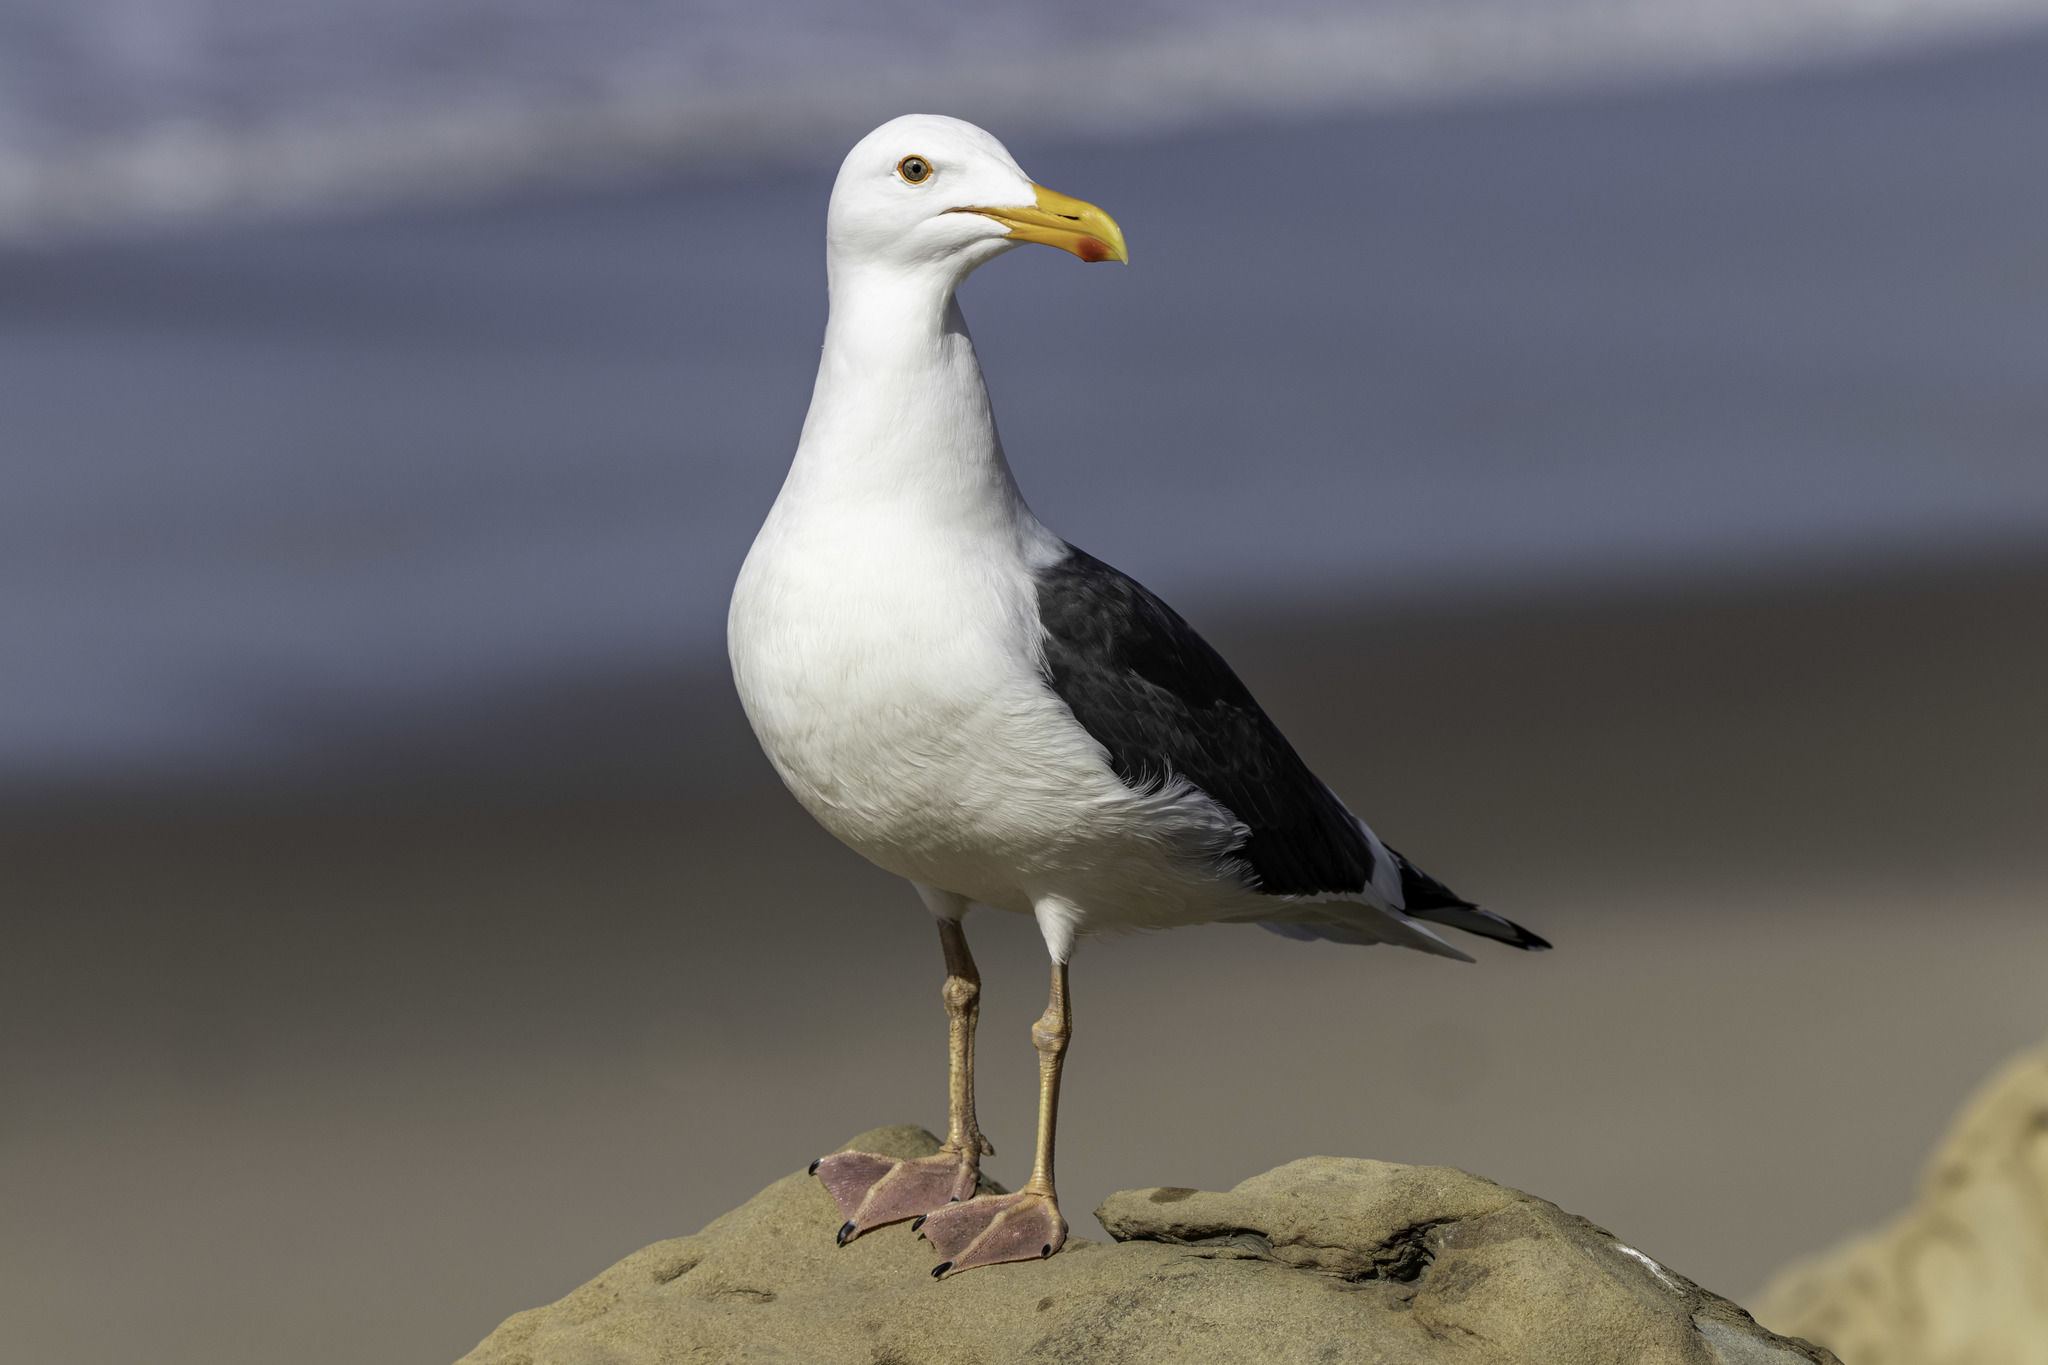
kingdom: Animalia
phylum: Chordata
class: Aves
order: Charadriiformes
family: Laridae
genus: Larus
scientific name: Larus occidentalis
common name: Western gull
